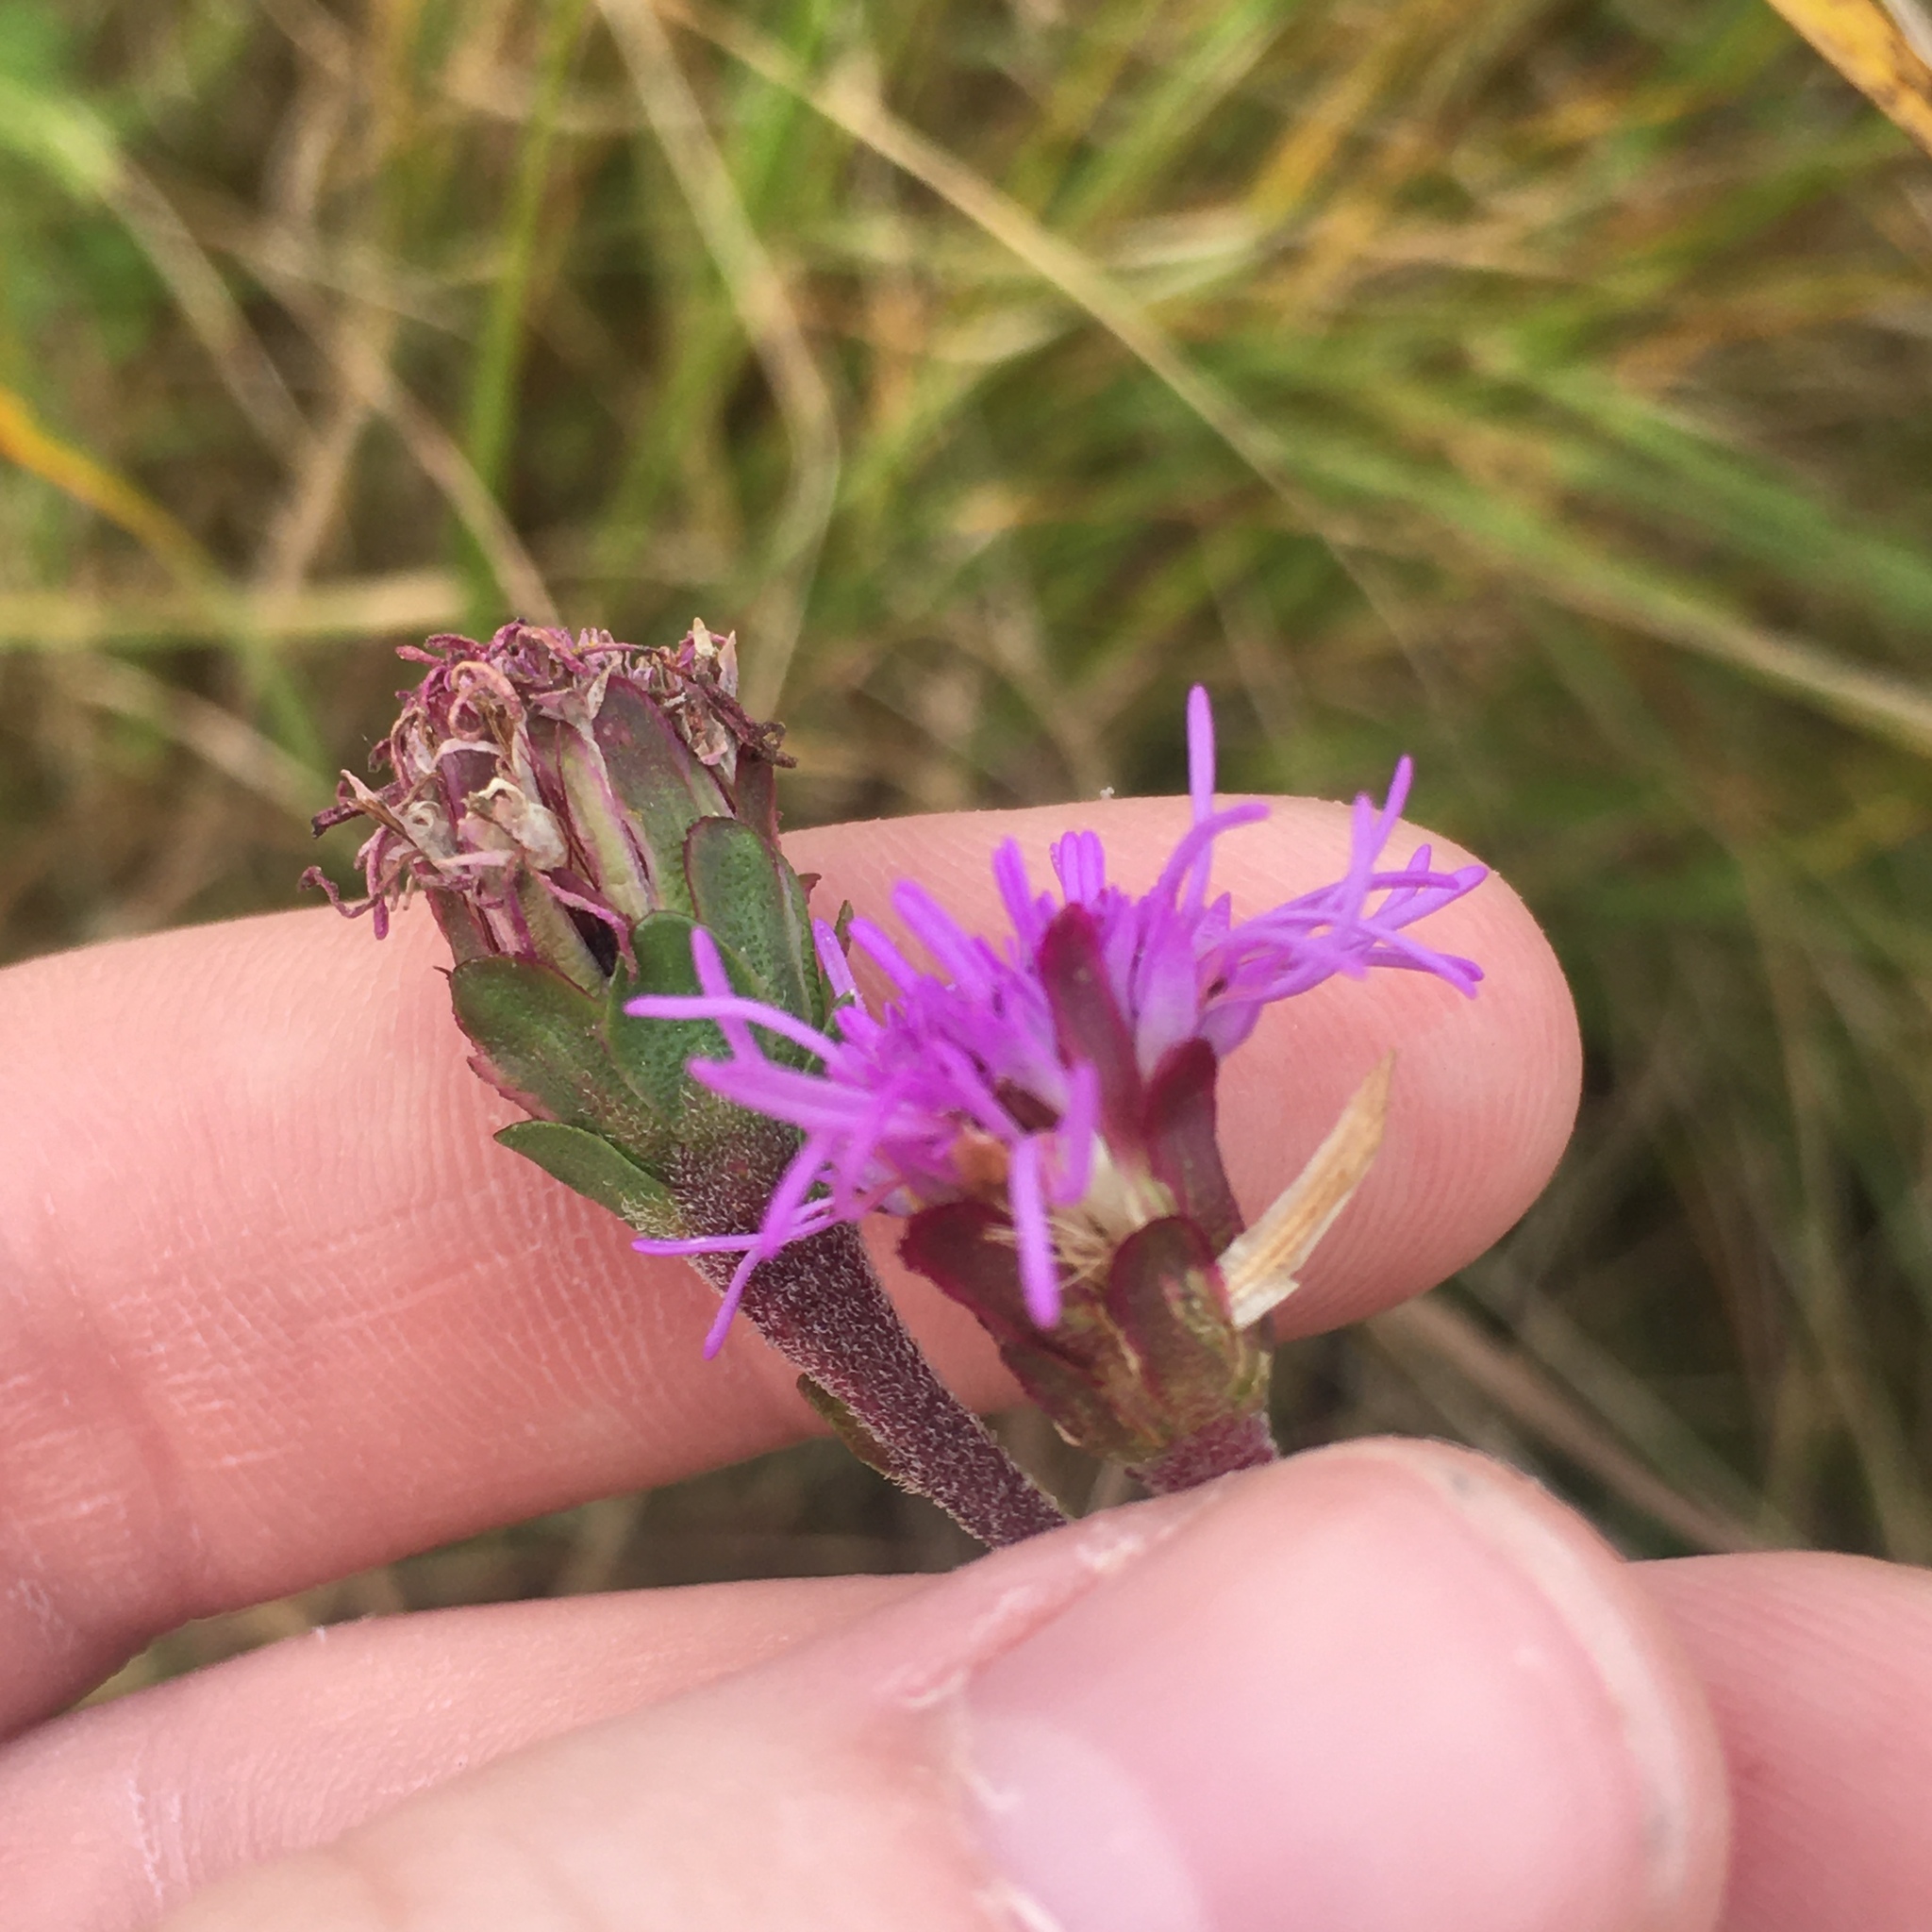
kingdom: Plantae
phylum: Tracheophyta
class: Magnoliopsida
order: Asterales
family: Asteraceae
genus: Liatris
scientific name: Liatris ligulistylis
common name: Northern plains gayfeather
